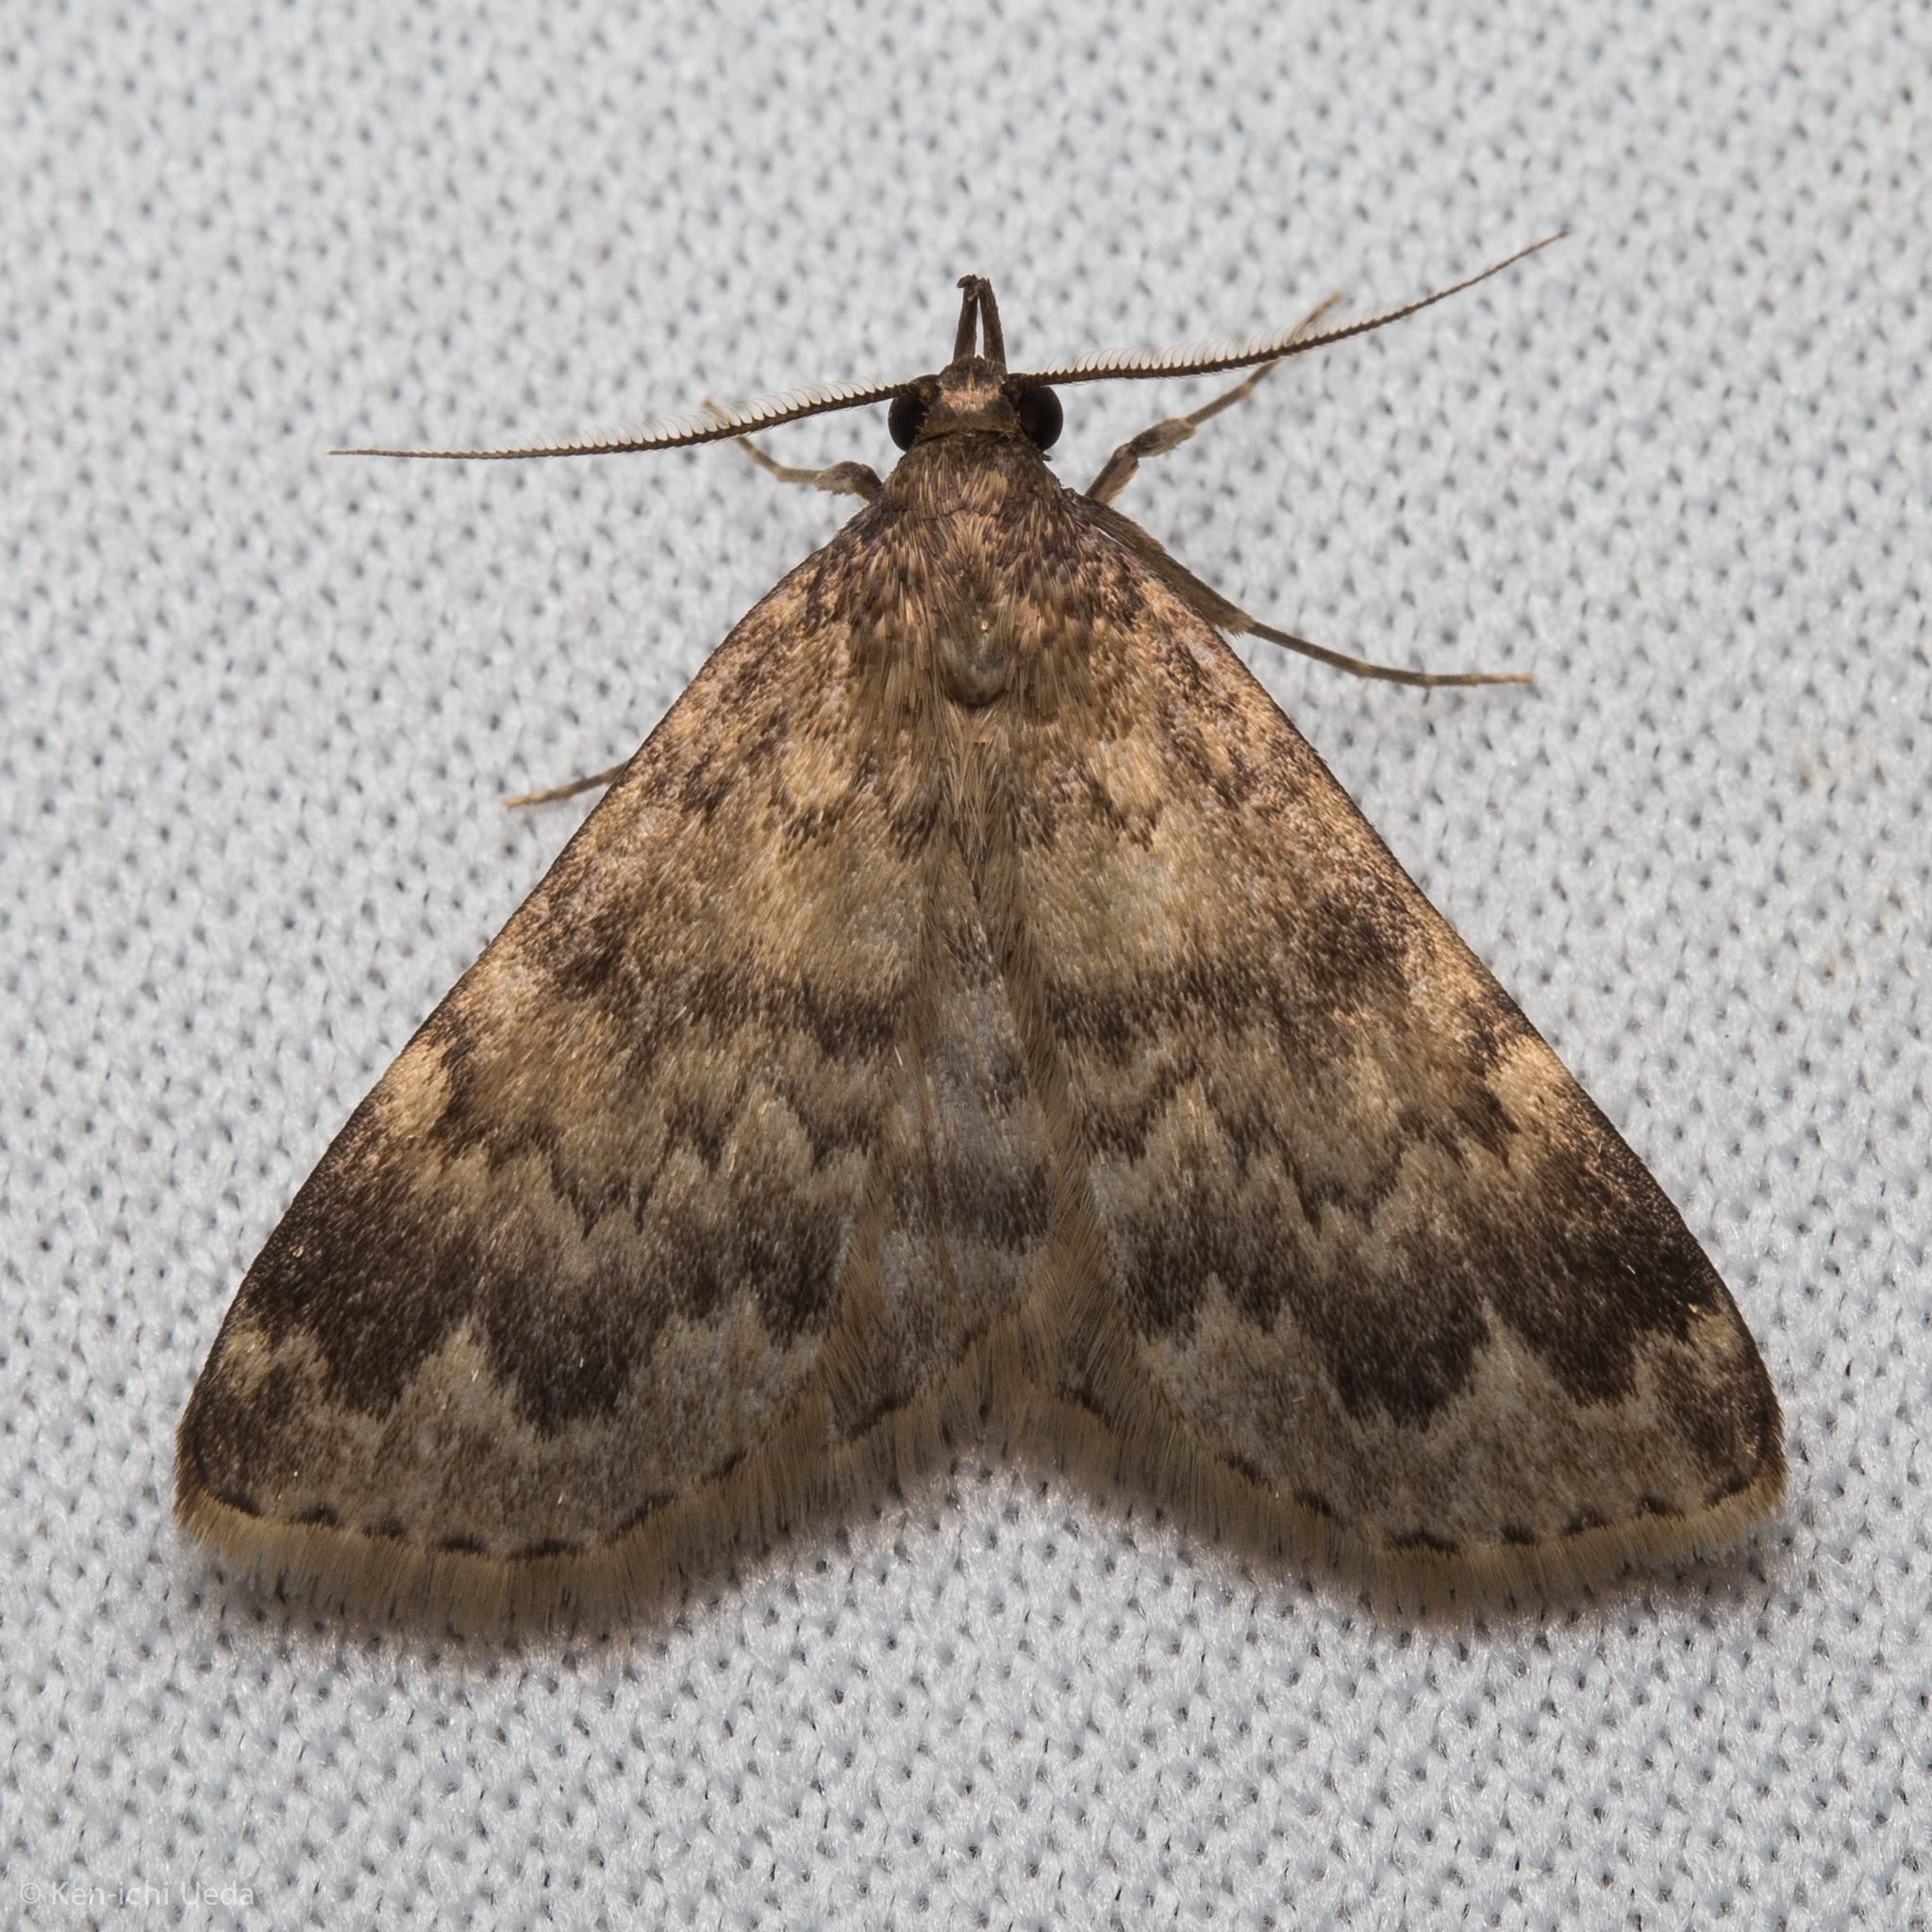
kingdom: Animalia
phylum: Arthropoda
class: Insecta
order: Lepidoptera
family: Erebidae
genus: Idia
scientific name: Idia occidentalis
